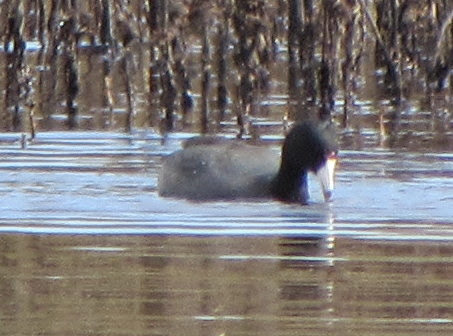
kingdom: Animalia
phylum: Chordata
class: Aves
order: Gruiformes
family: Rallidae
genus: Fulica
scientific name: Fulica americana
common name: American coot
